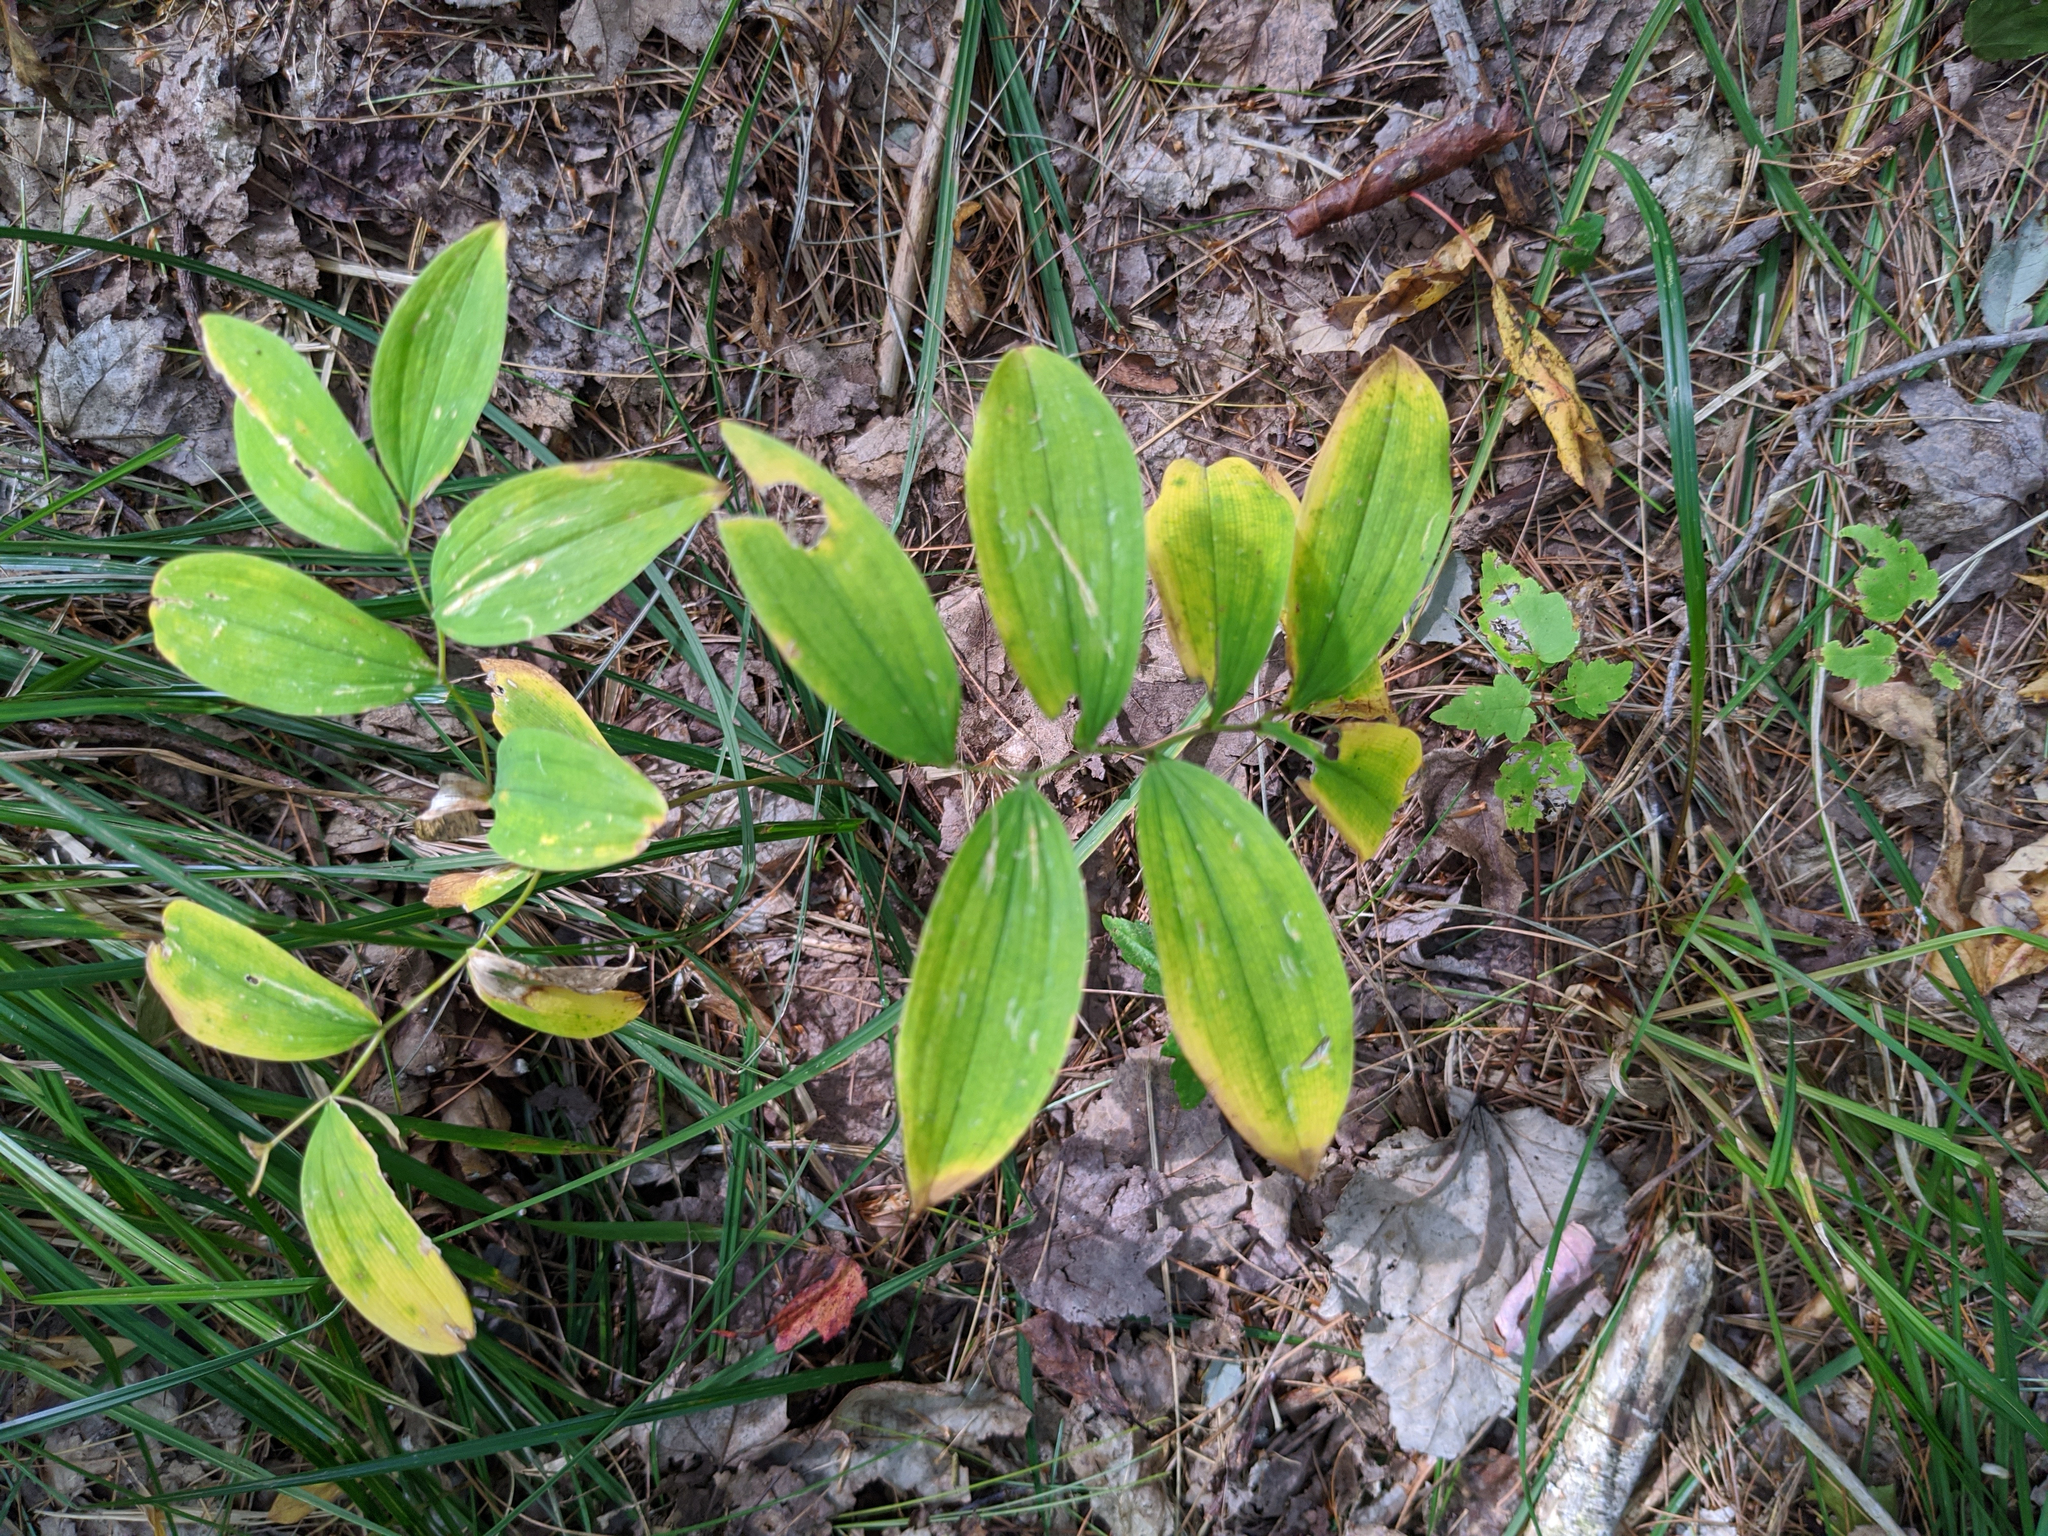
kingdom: Plantae
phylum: Tracheophyta
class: Liliopsida
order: Liliales
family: Colchicaceae
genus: Uvularia
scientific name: Uvularia sessilifolia
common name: Straw-lily
